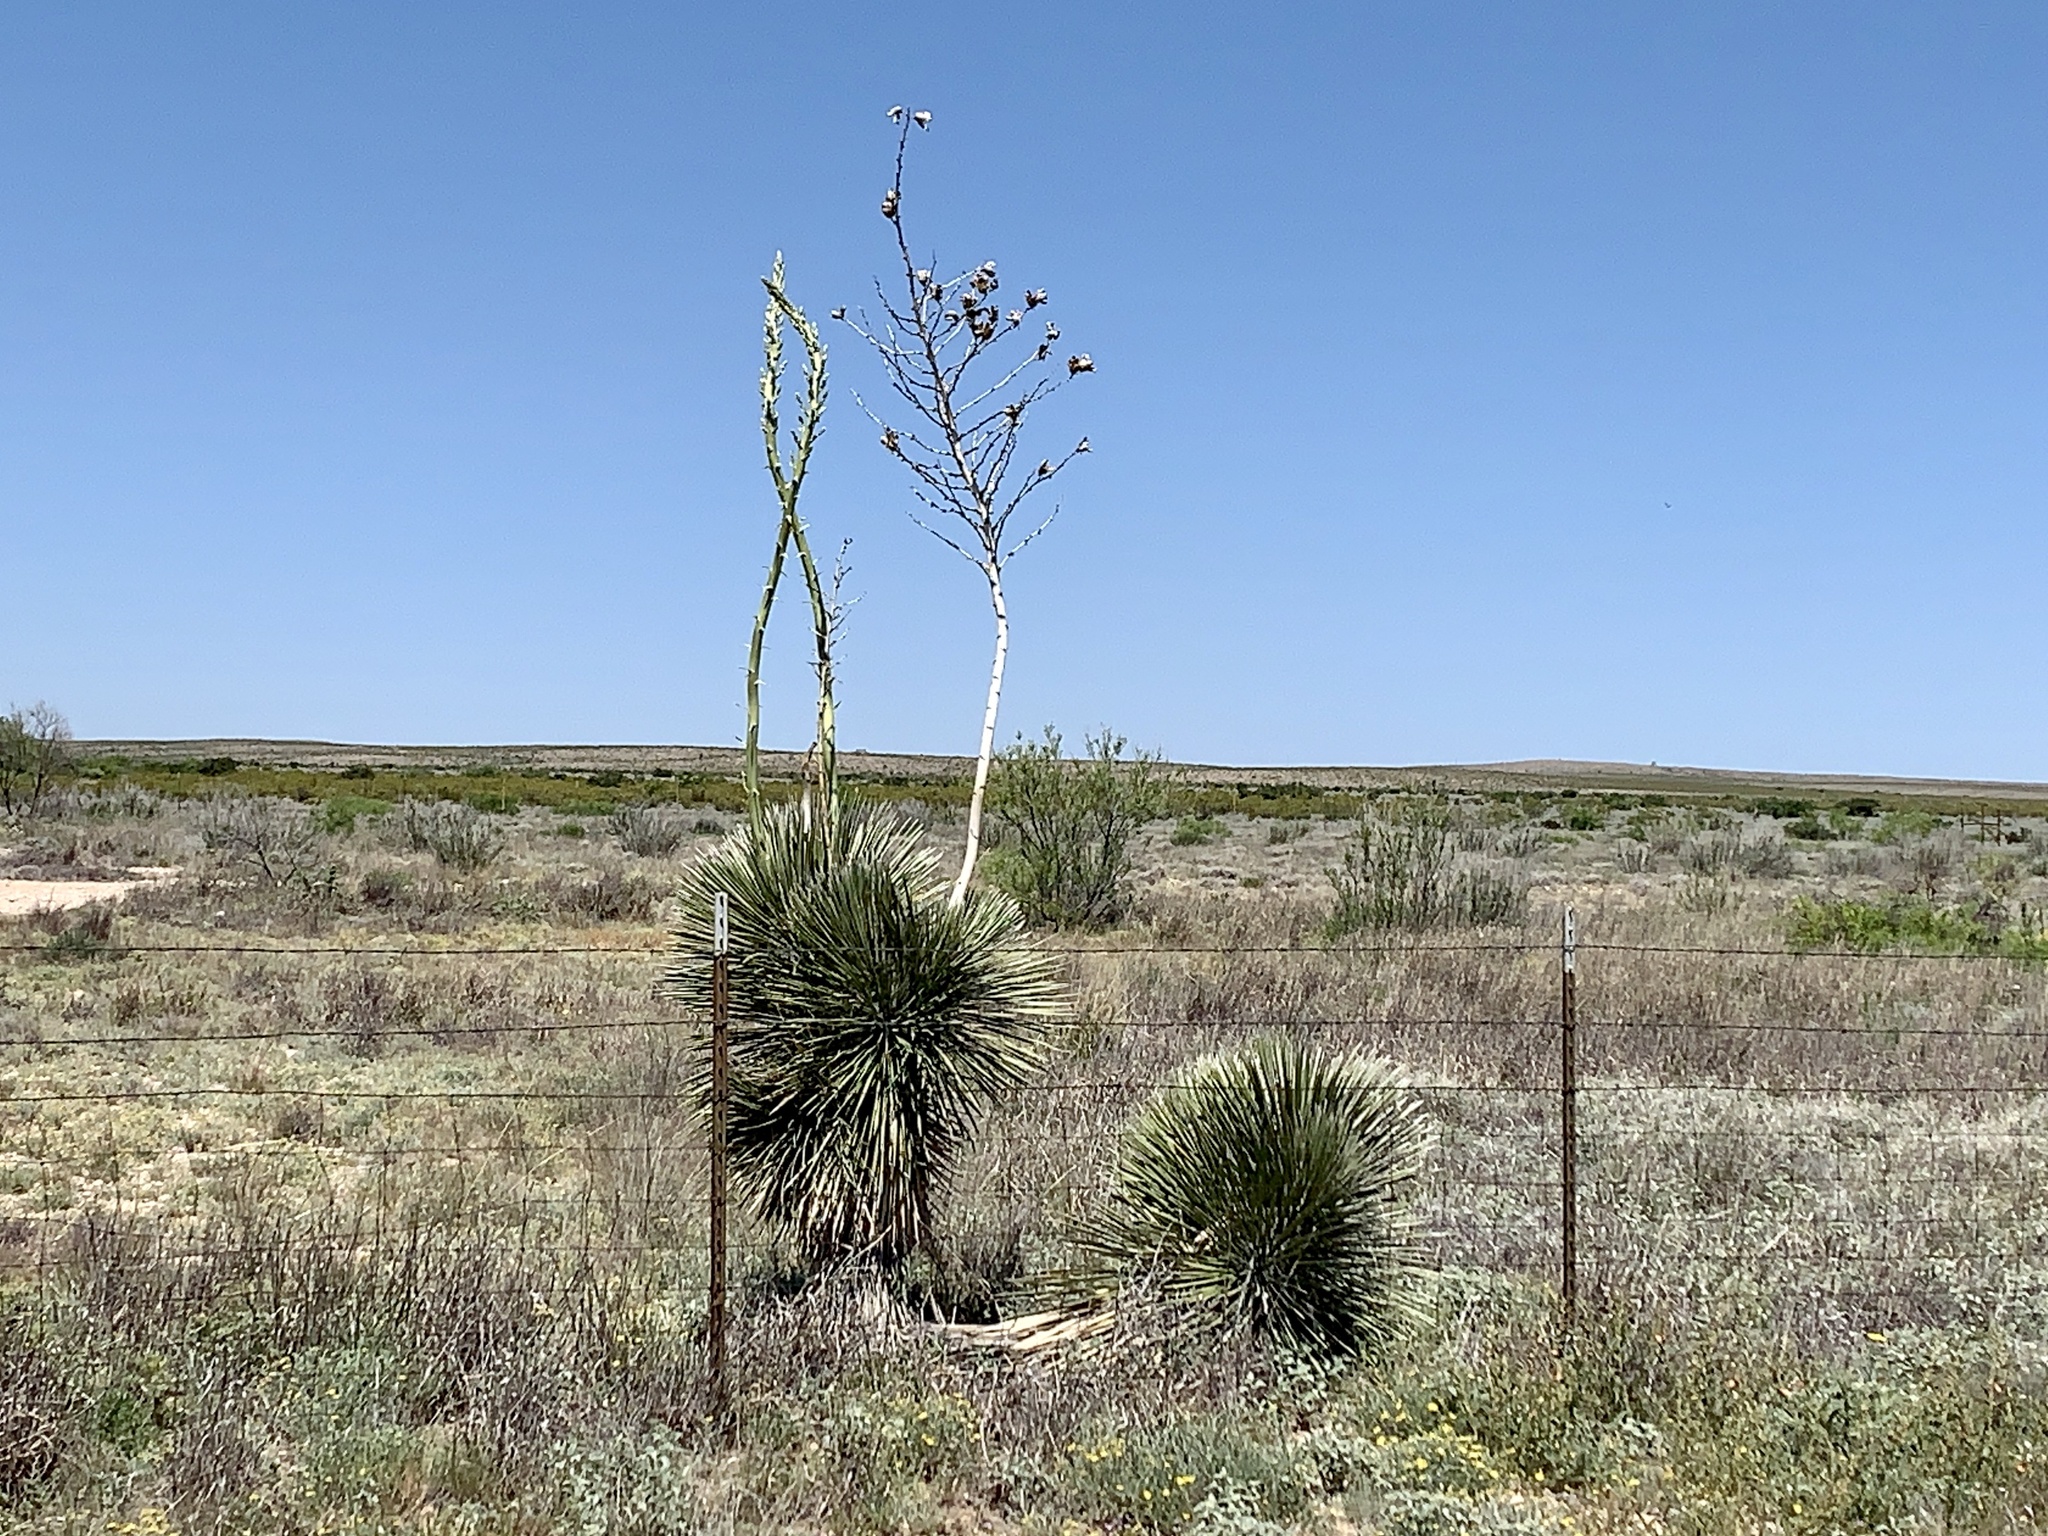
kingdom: Plantae
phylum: Tracheophyta
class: Liliopsida
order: Asparagales
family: Asparagaceae
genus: Yucca
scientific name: Yucca elata
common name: Palmella
